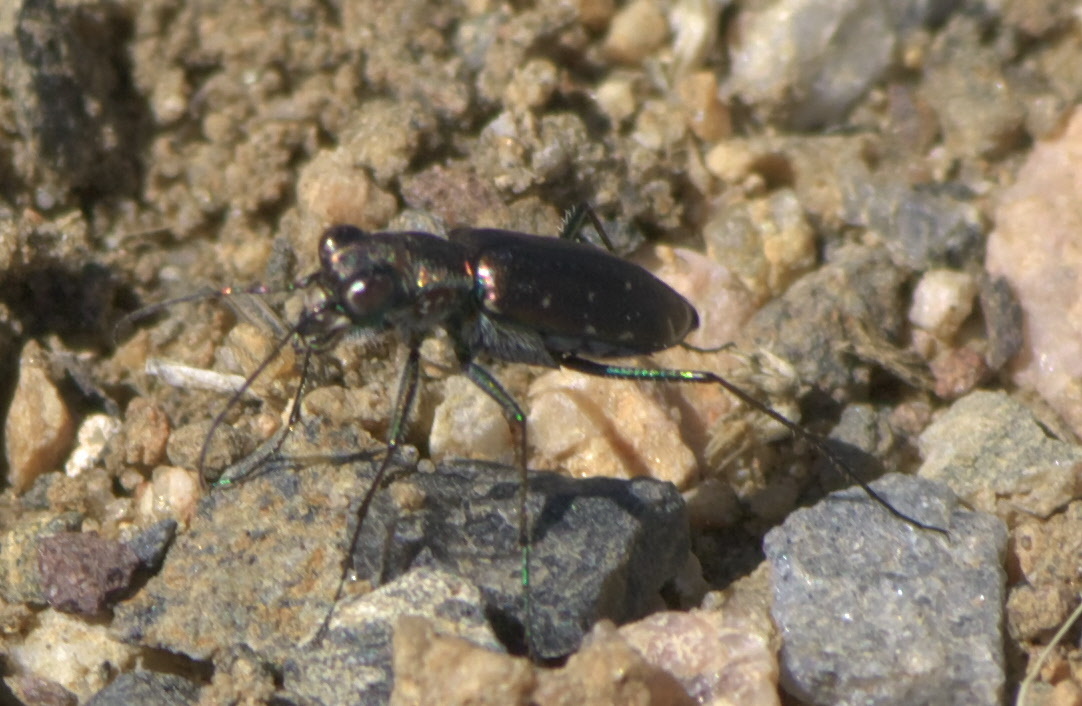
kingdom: Animalia
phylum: Arthropoda
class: Insecta
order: Coleoptera
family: Carabidae
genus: Cicindela
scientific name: Cicindela punctulata
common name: Punctured tiger beetle
